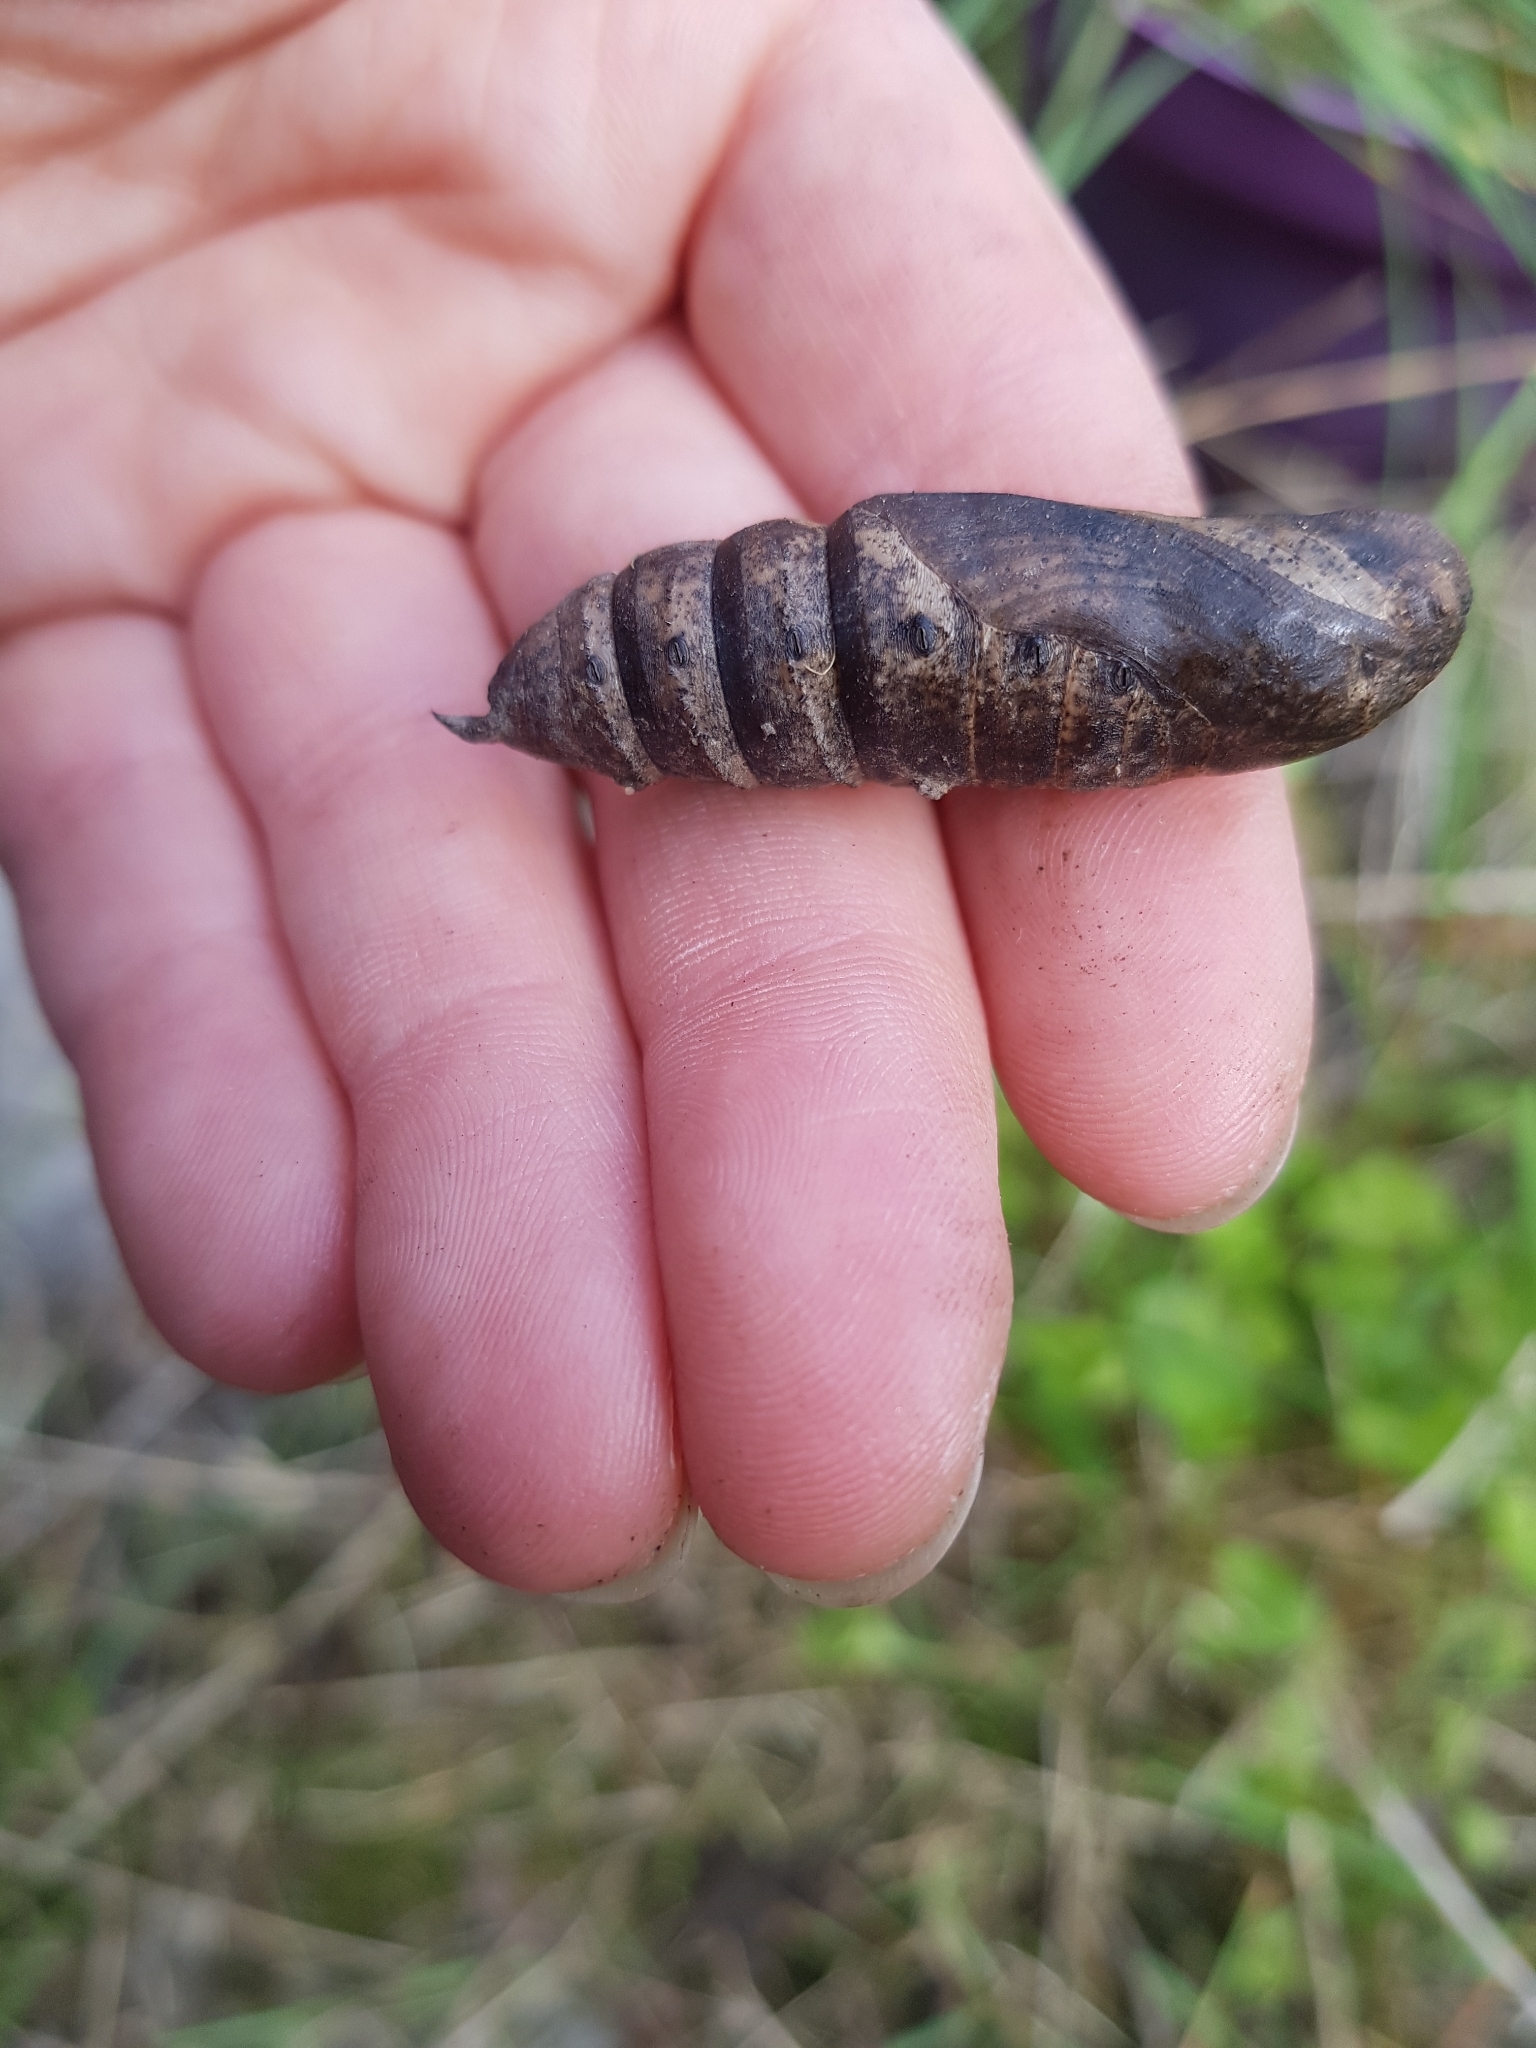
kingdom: Animalia
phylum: Arthropoda
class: Insecta
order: Lepidoptera
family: Sphingidae
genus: Deilephila
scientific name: Deilephila elpenor
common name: Elephant hawk-moth
